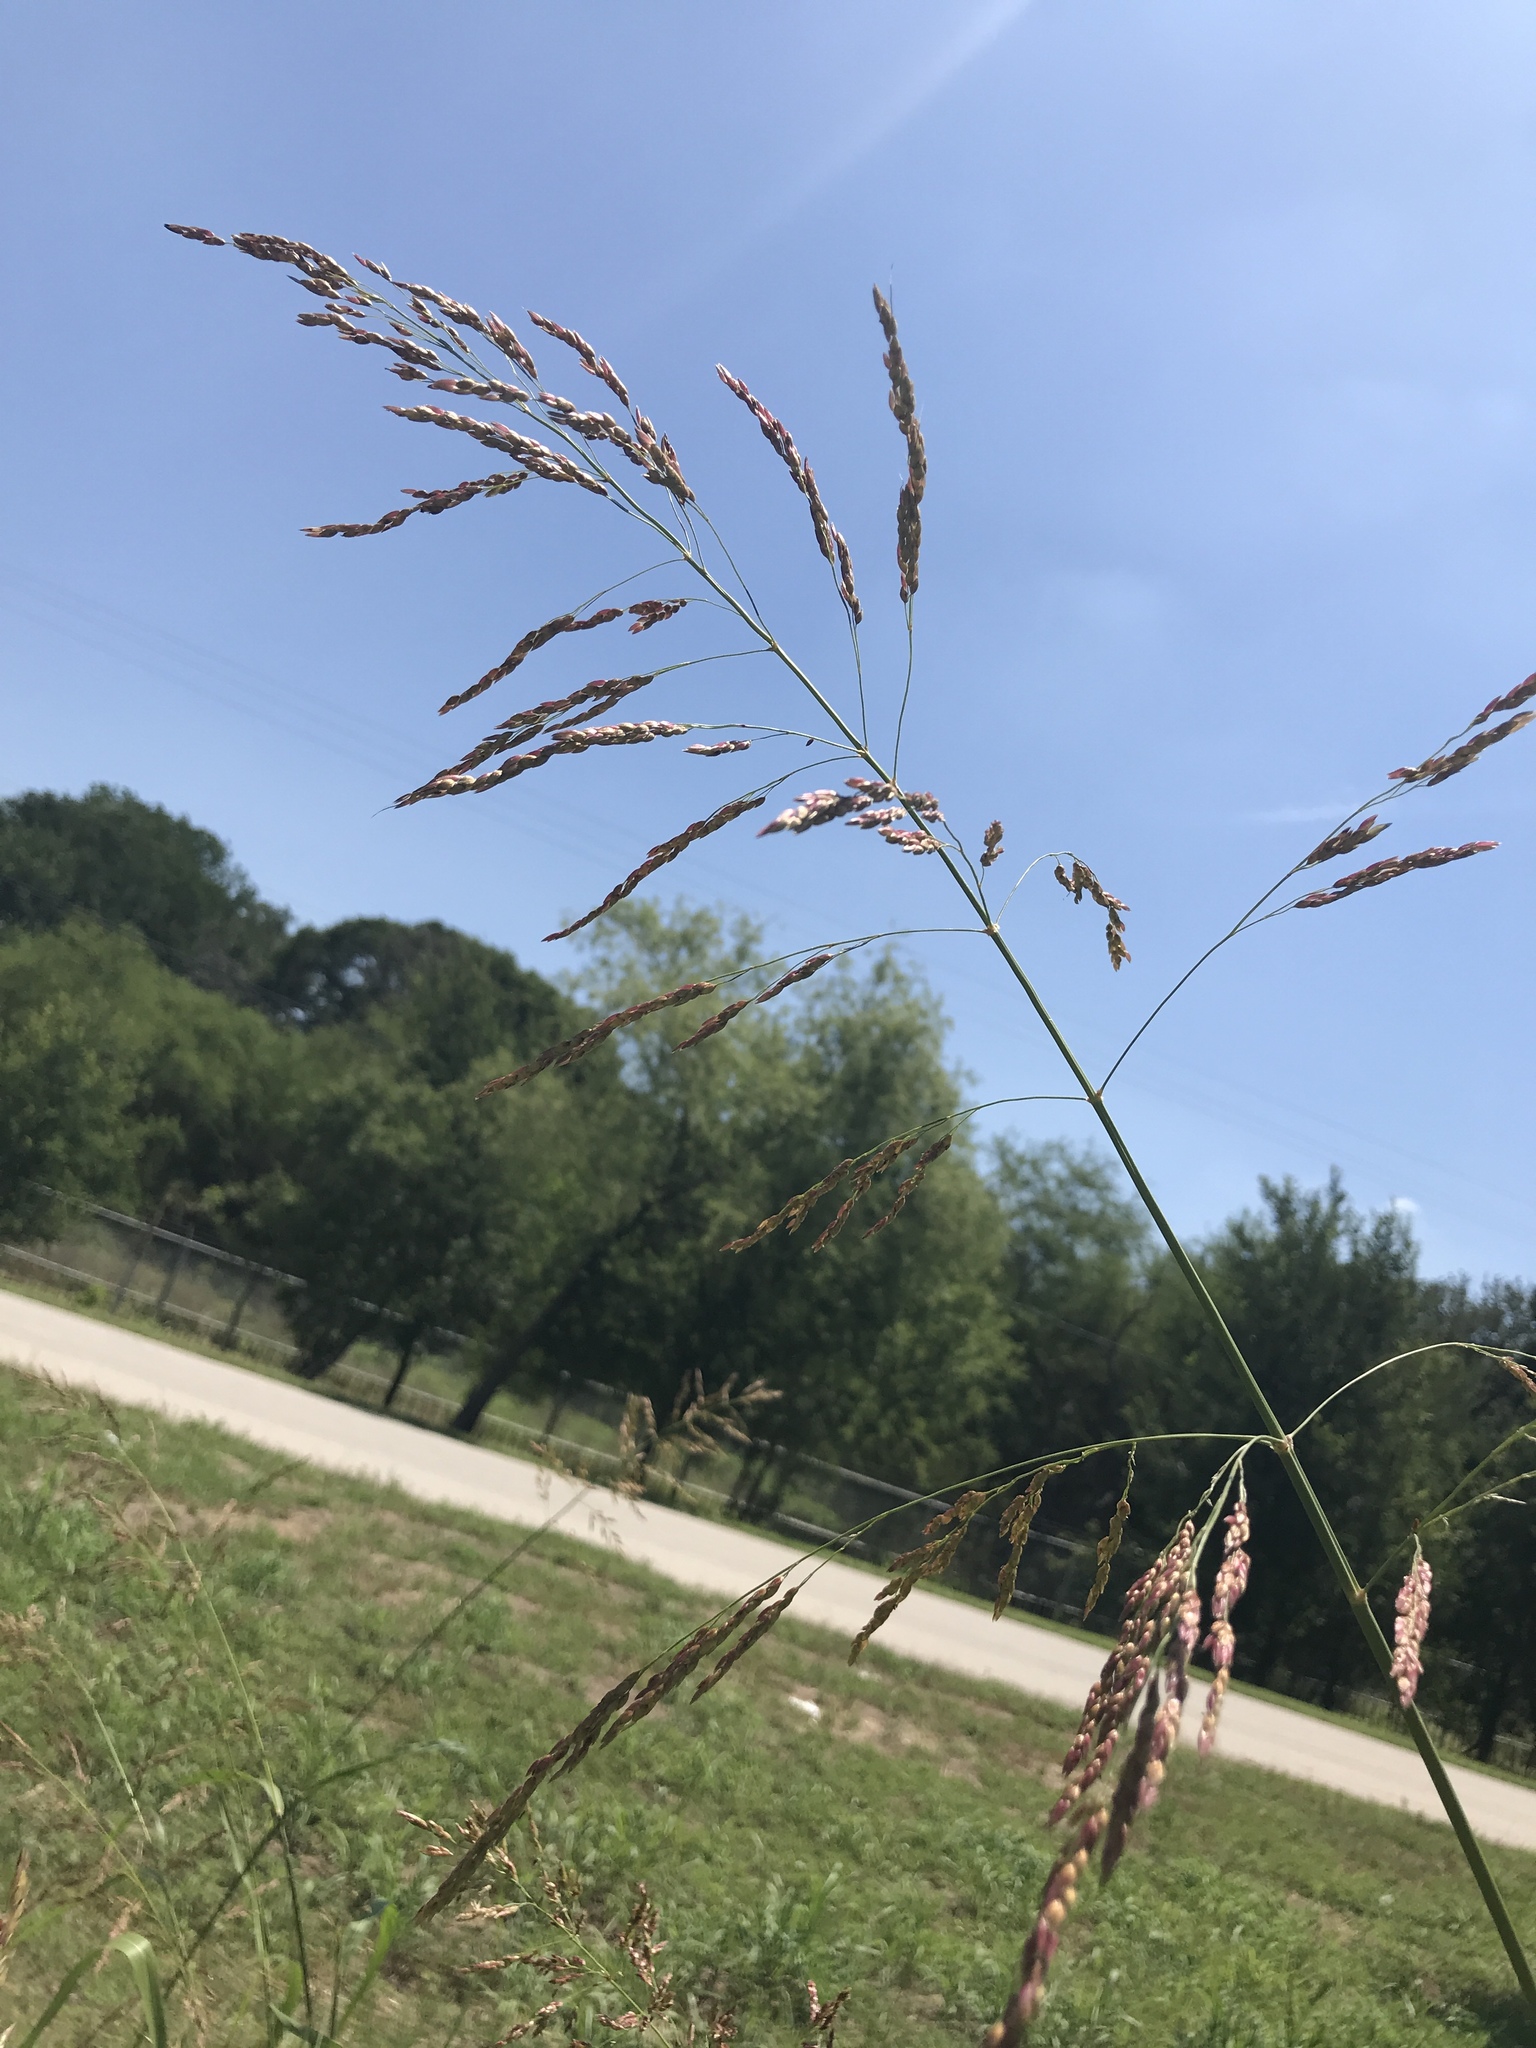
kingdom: Plantae
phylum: Tracheophyta
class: Liliopsida
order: Poales
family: Poaceae
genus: Sorghum
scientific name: Sorghum halepense
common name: Johnson-grass
